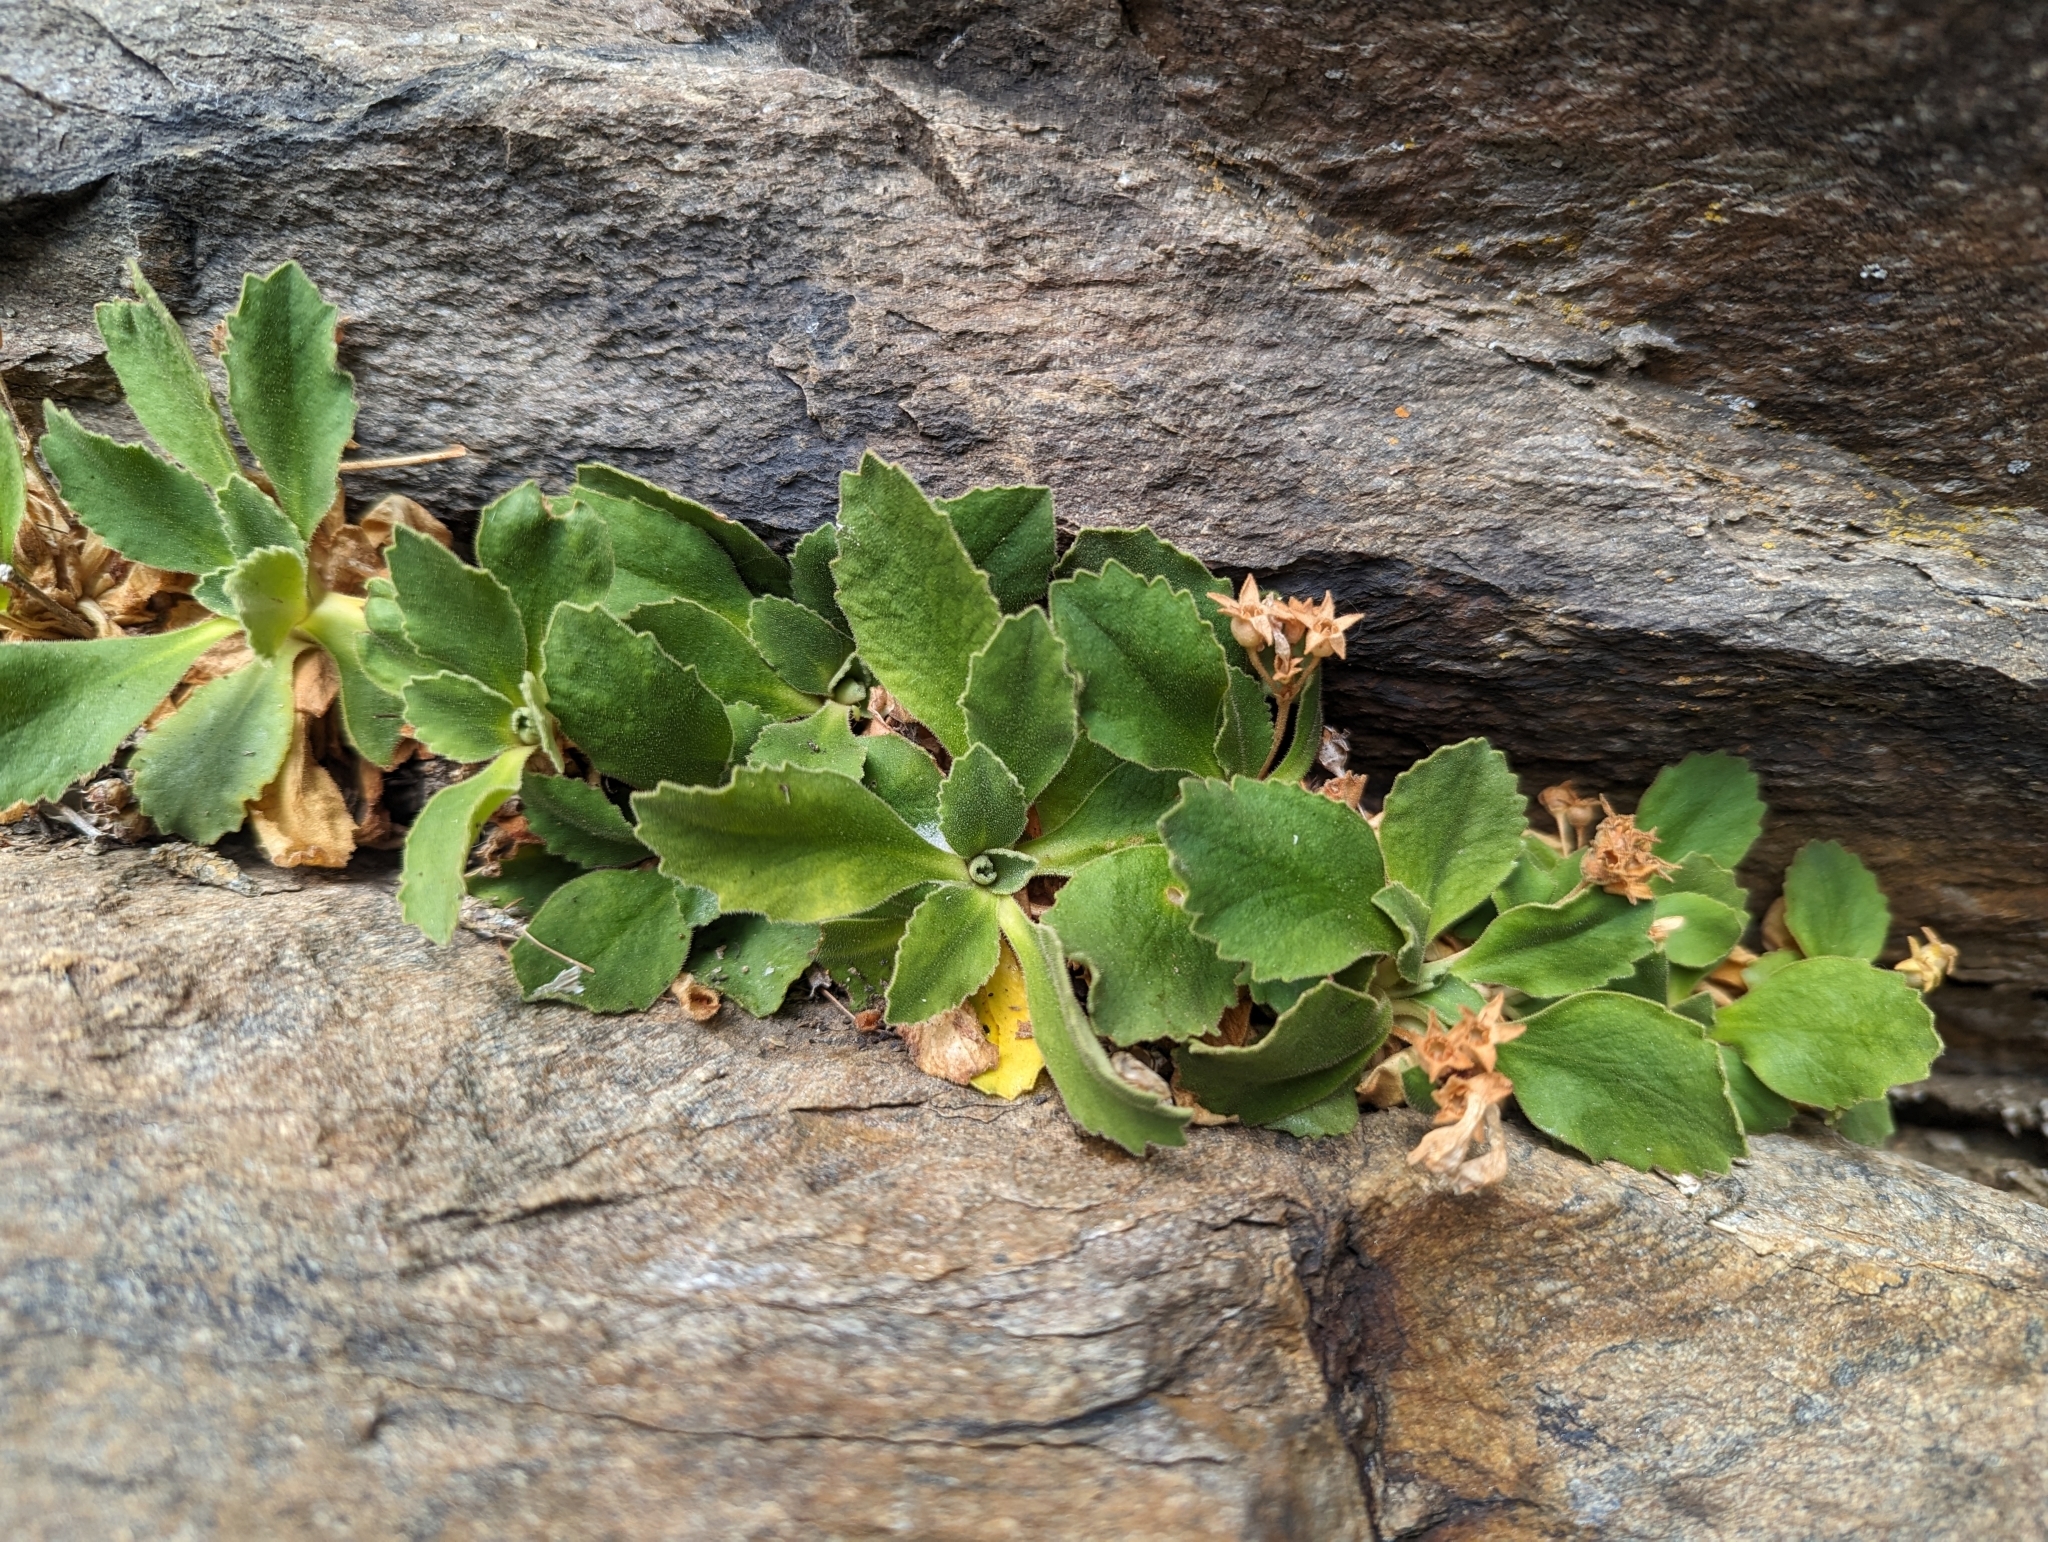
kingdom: Plantae
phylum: Tracheophyta
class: Magnoliopsida
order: Ericales
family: Primulaceae
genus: Primula
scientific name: Primula hirsuta
